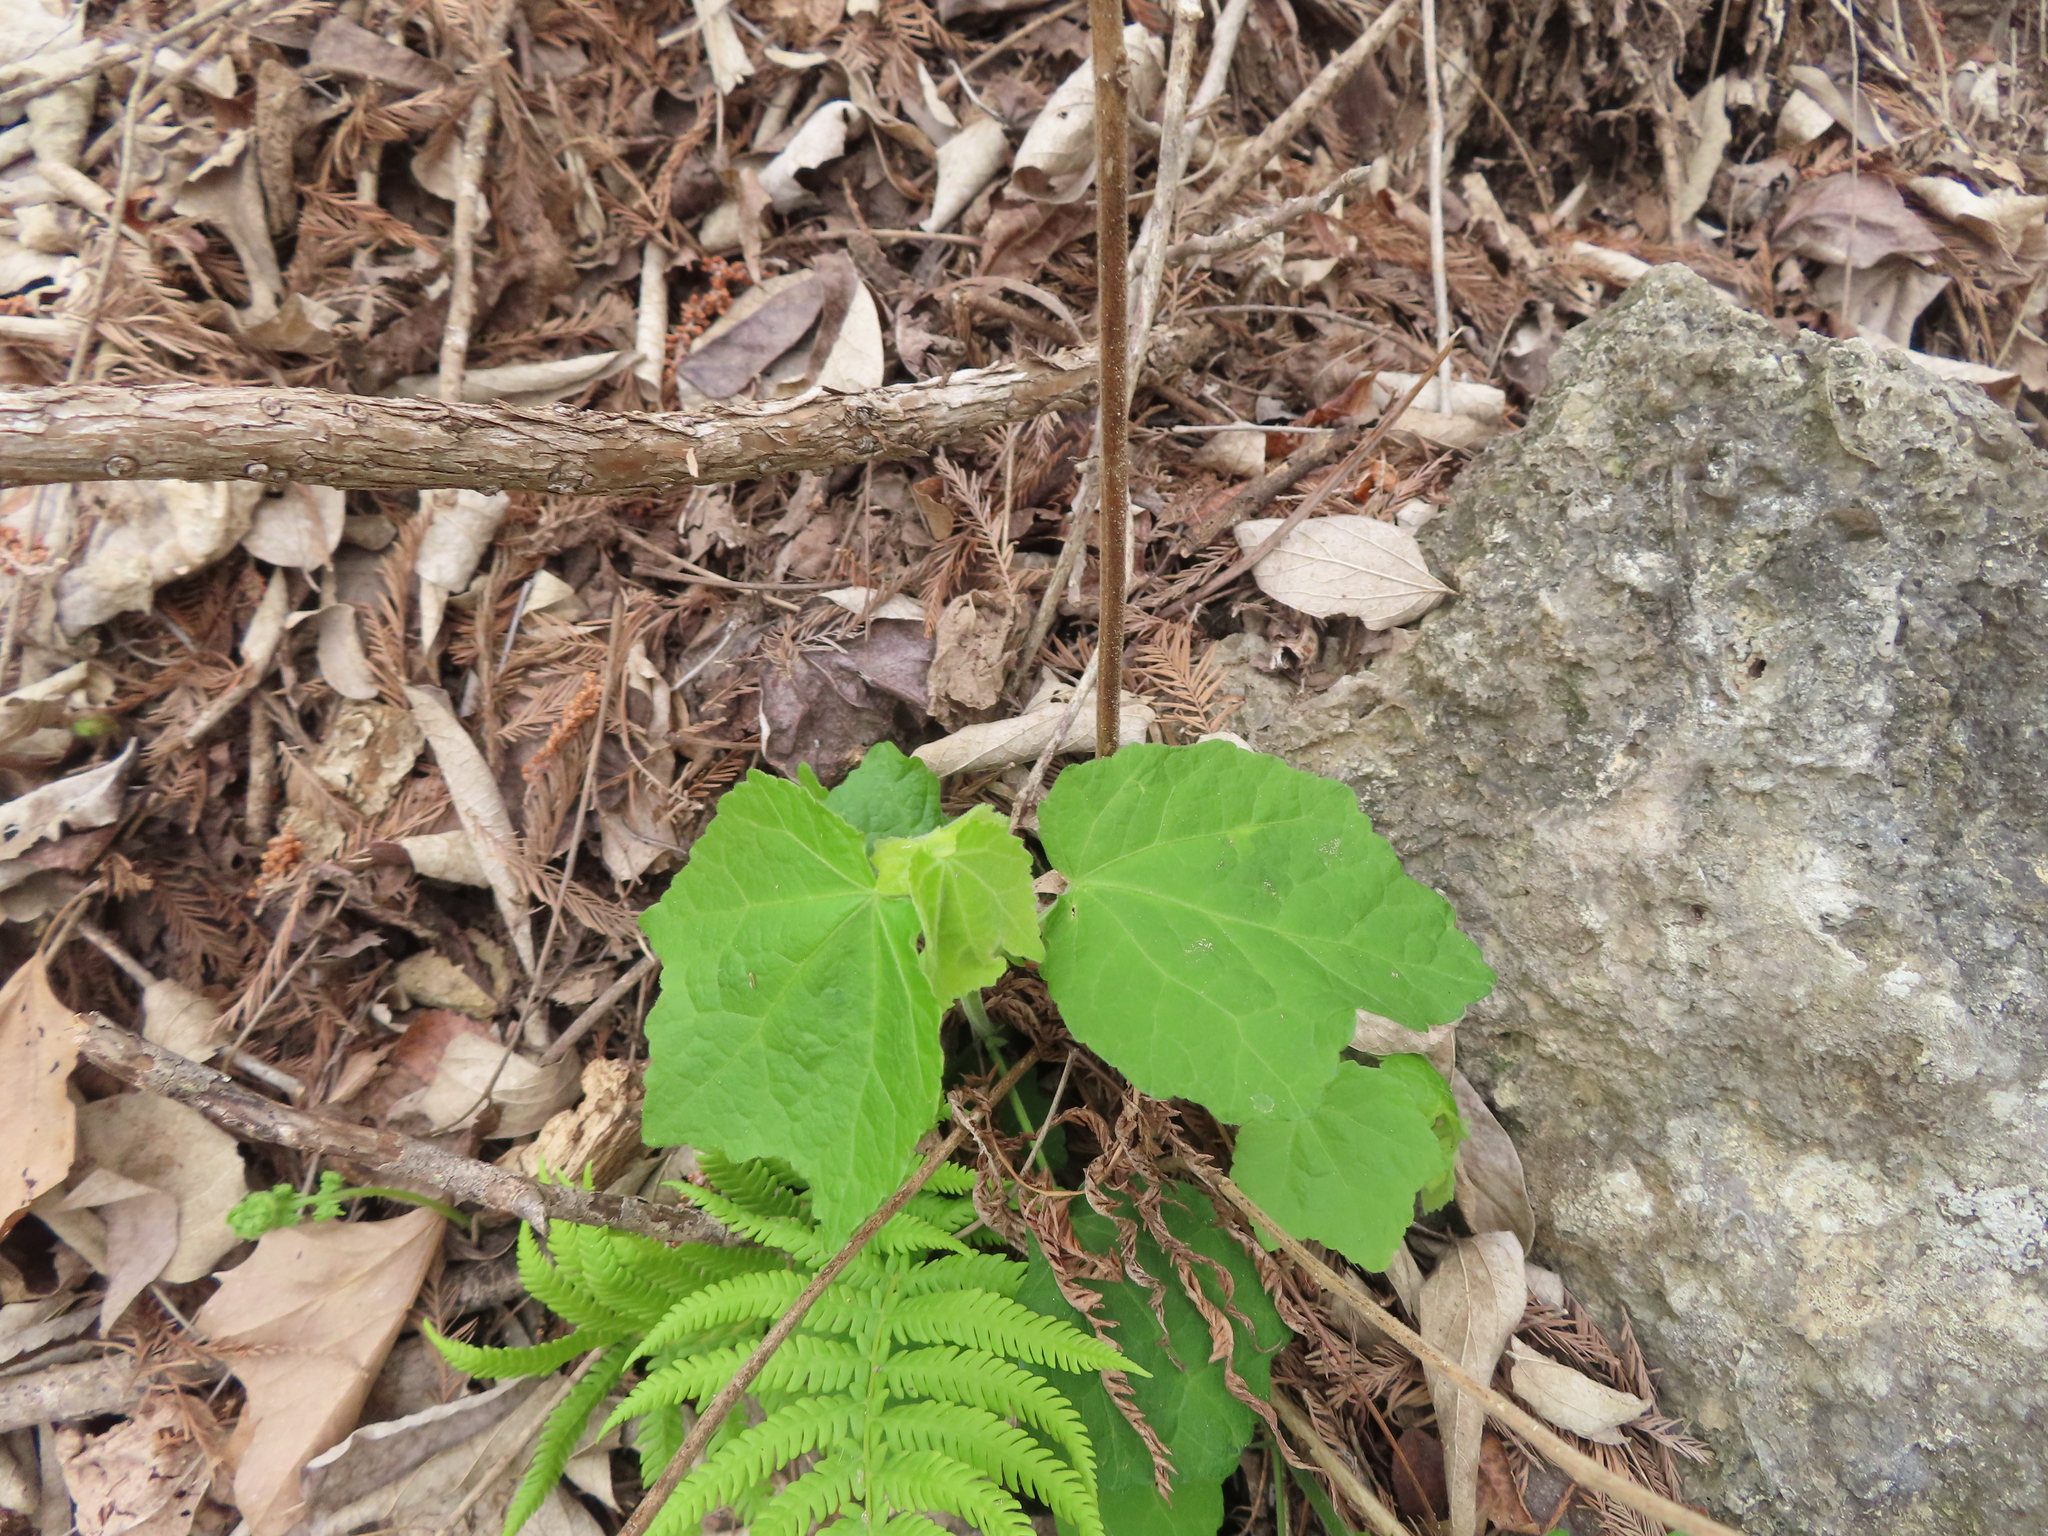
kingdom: Plantae
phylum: Tracheophyta
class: Magnoliopsida
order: Malvales
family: Malvaceae
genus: Malvaviscus
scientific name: Malvaviscus arboreus
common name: Wax mallow
